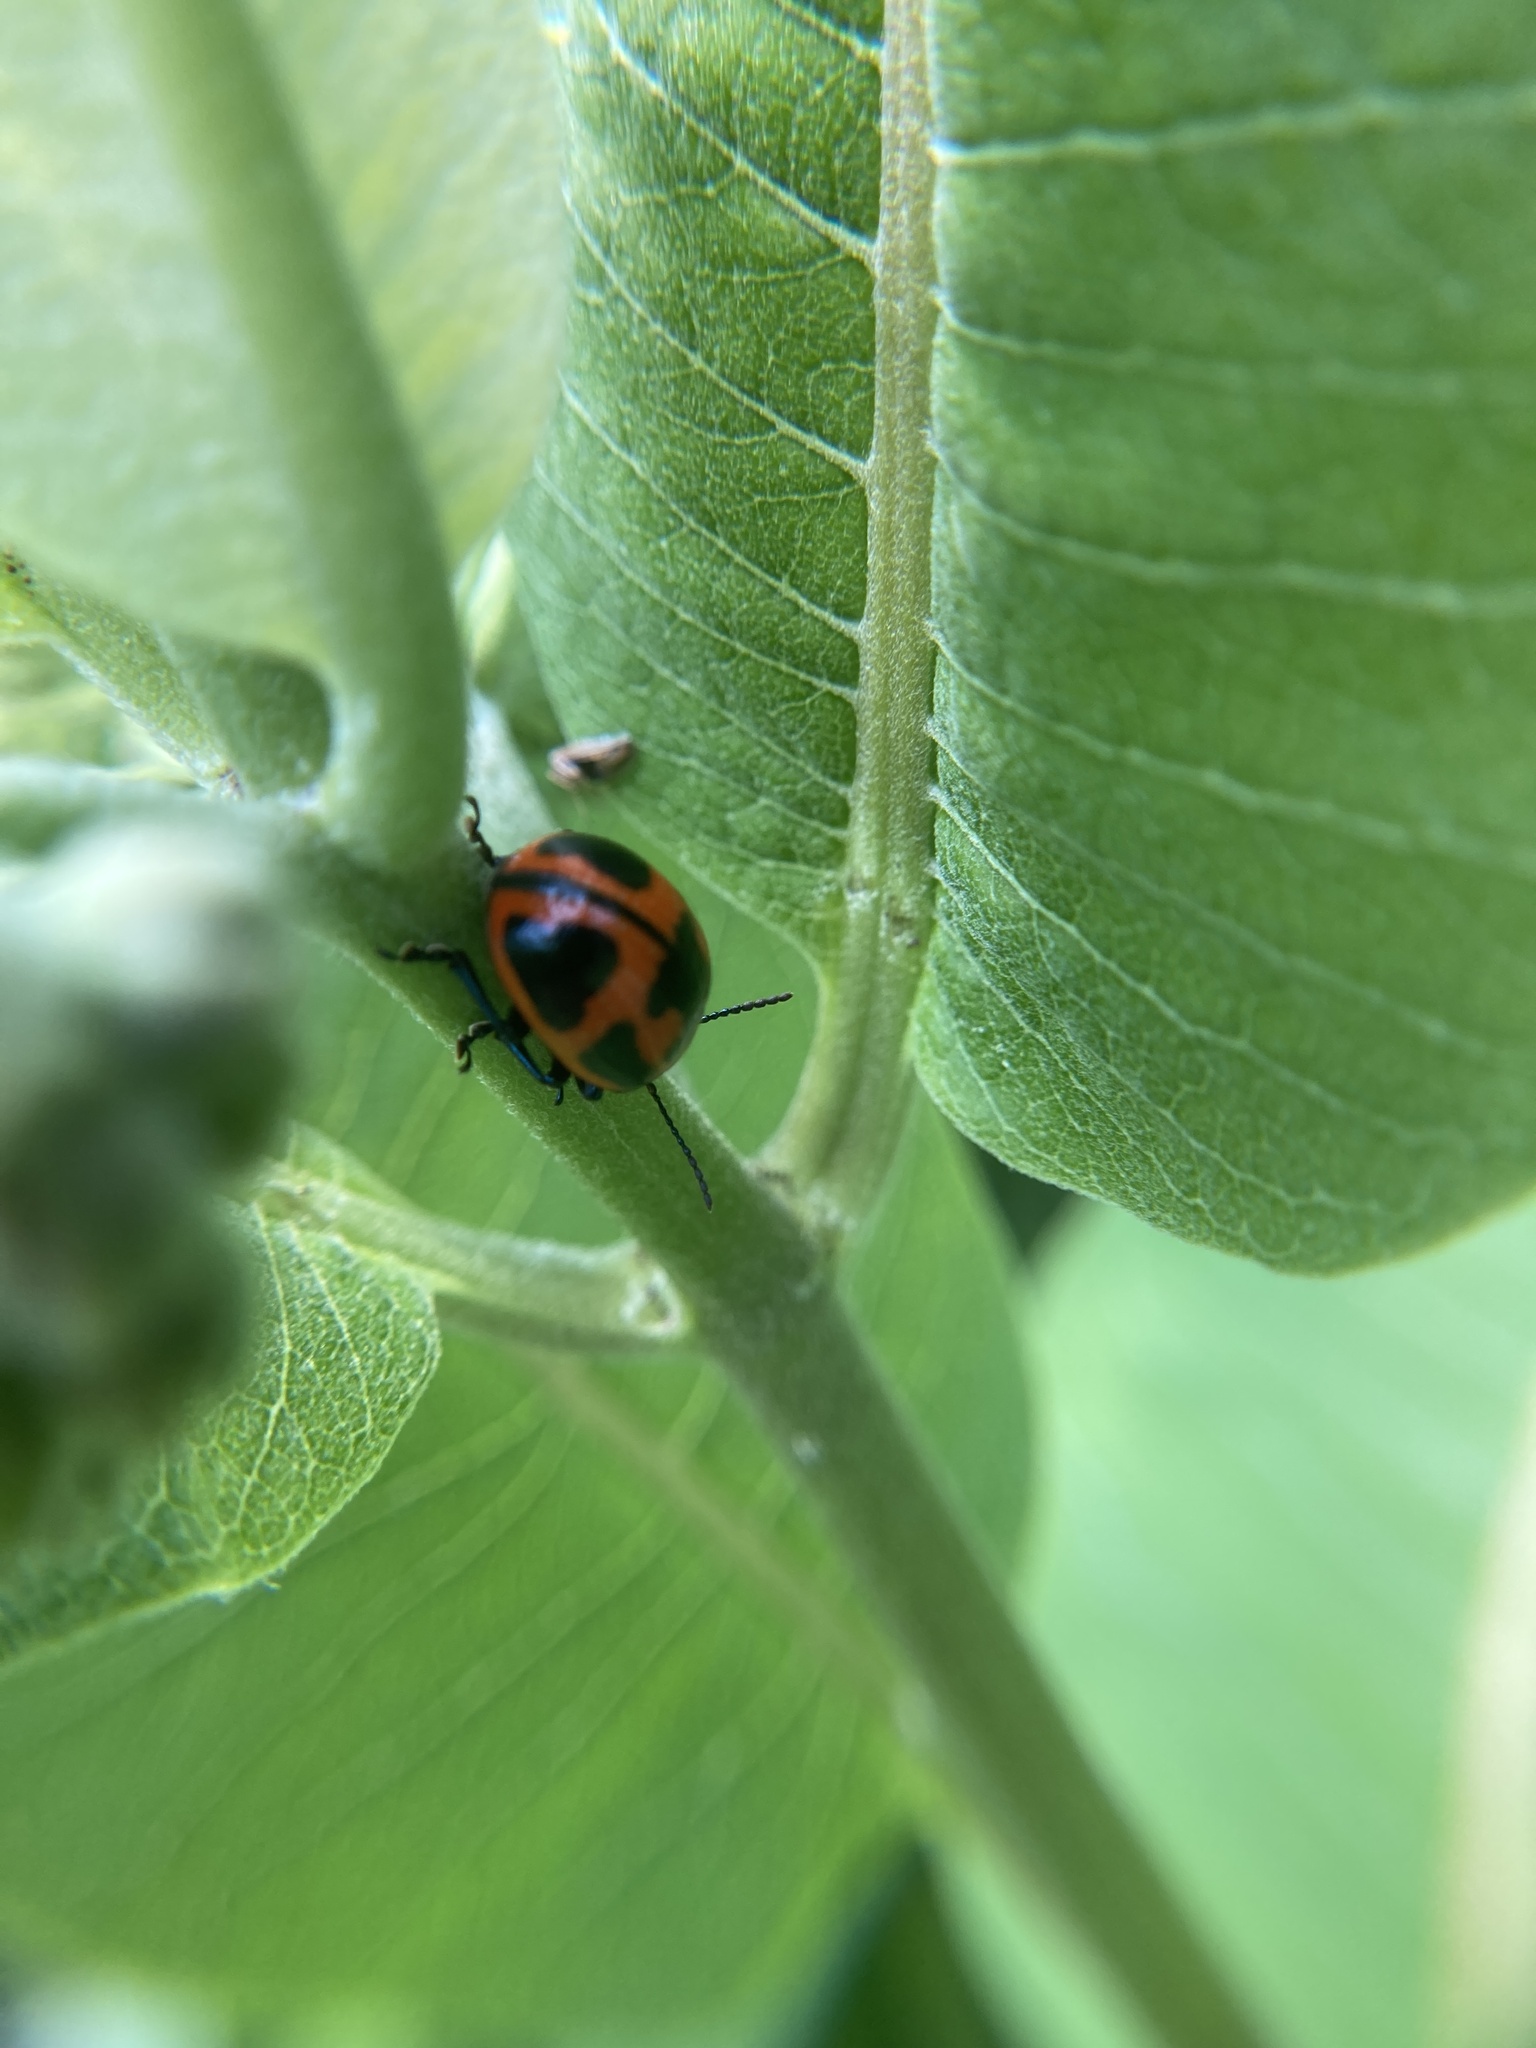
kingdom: Animalia
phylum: Arthropoda
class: Insecta
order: Coleoptera
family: Chrysomelidae
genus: Labidomera
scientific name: Labidomera clivicollis
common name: Swamp milkweed leaf beetle
